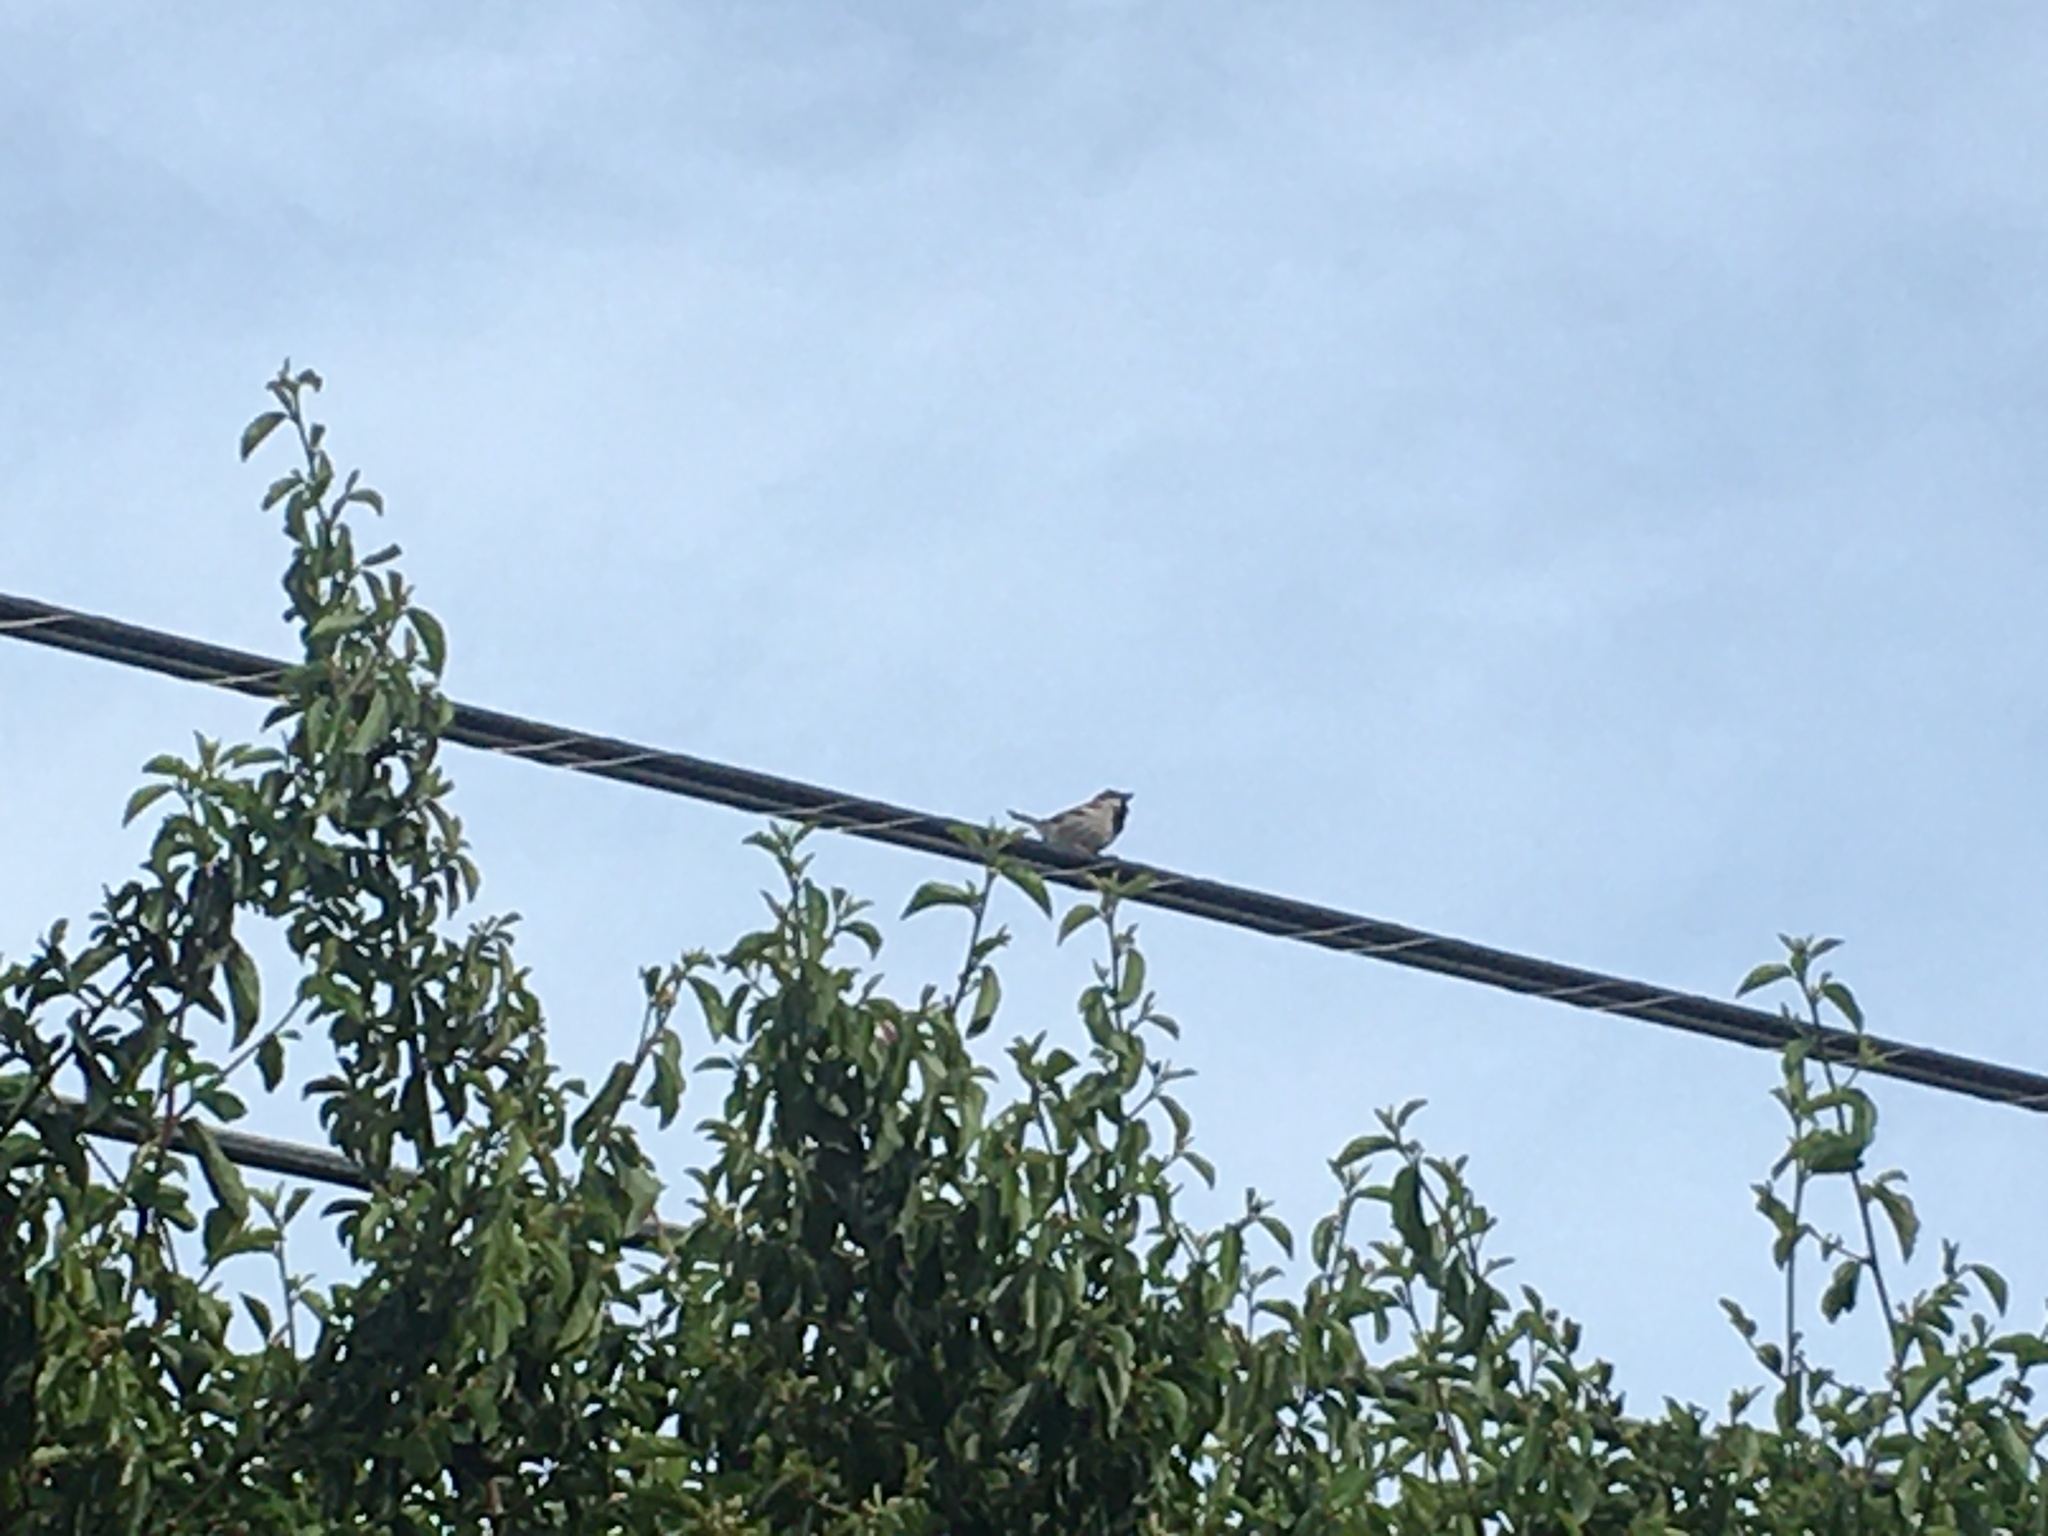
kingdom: Animalia
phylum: Chordata
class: Aves
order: Passeriformes
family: Passeridae
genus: Passer
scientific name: Passer domesticus
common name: House sparrow
